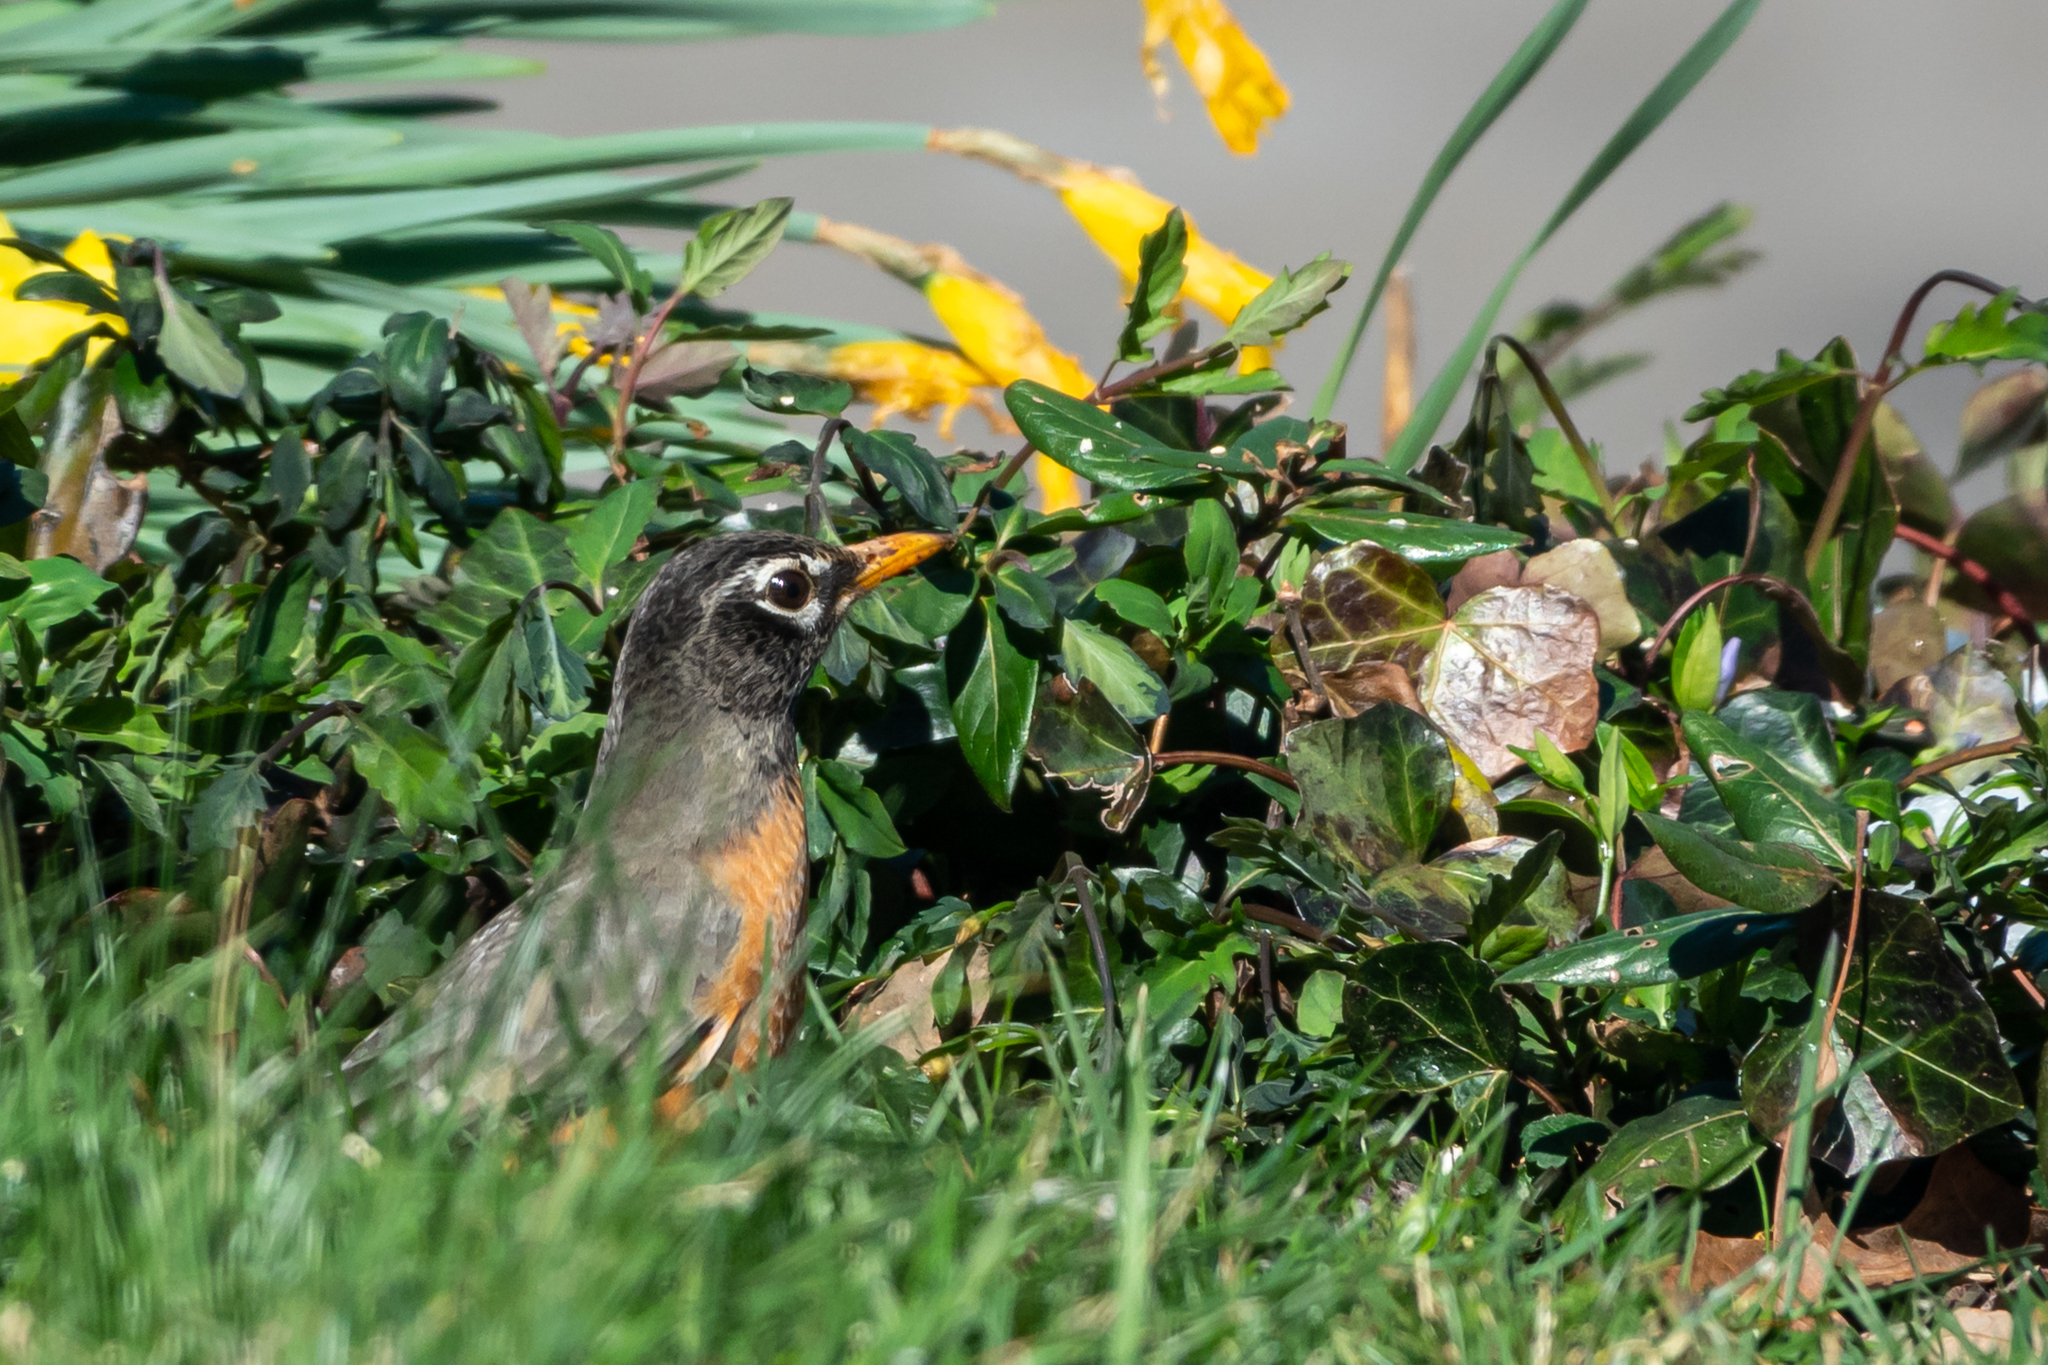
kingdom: Animalia
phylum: Chordata
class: Aves
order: Passeriformes
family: Turdidae
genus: Turdus
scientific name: Turdus migratorius
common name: American robin
